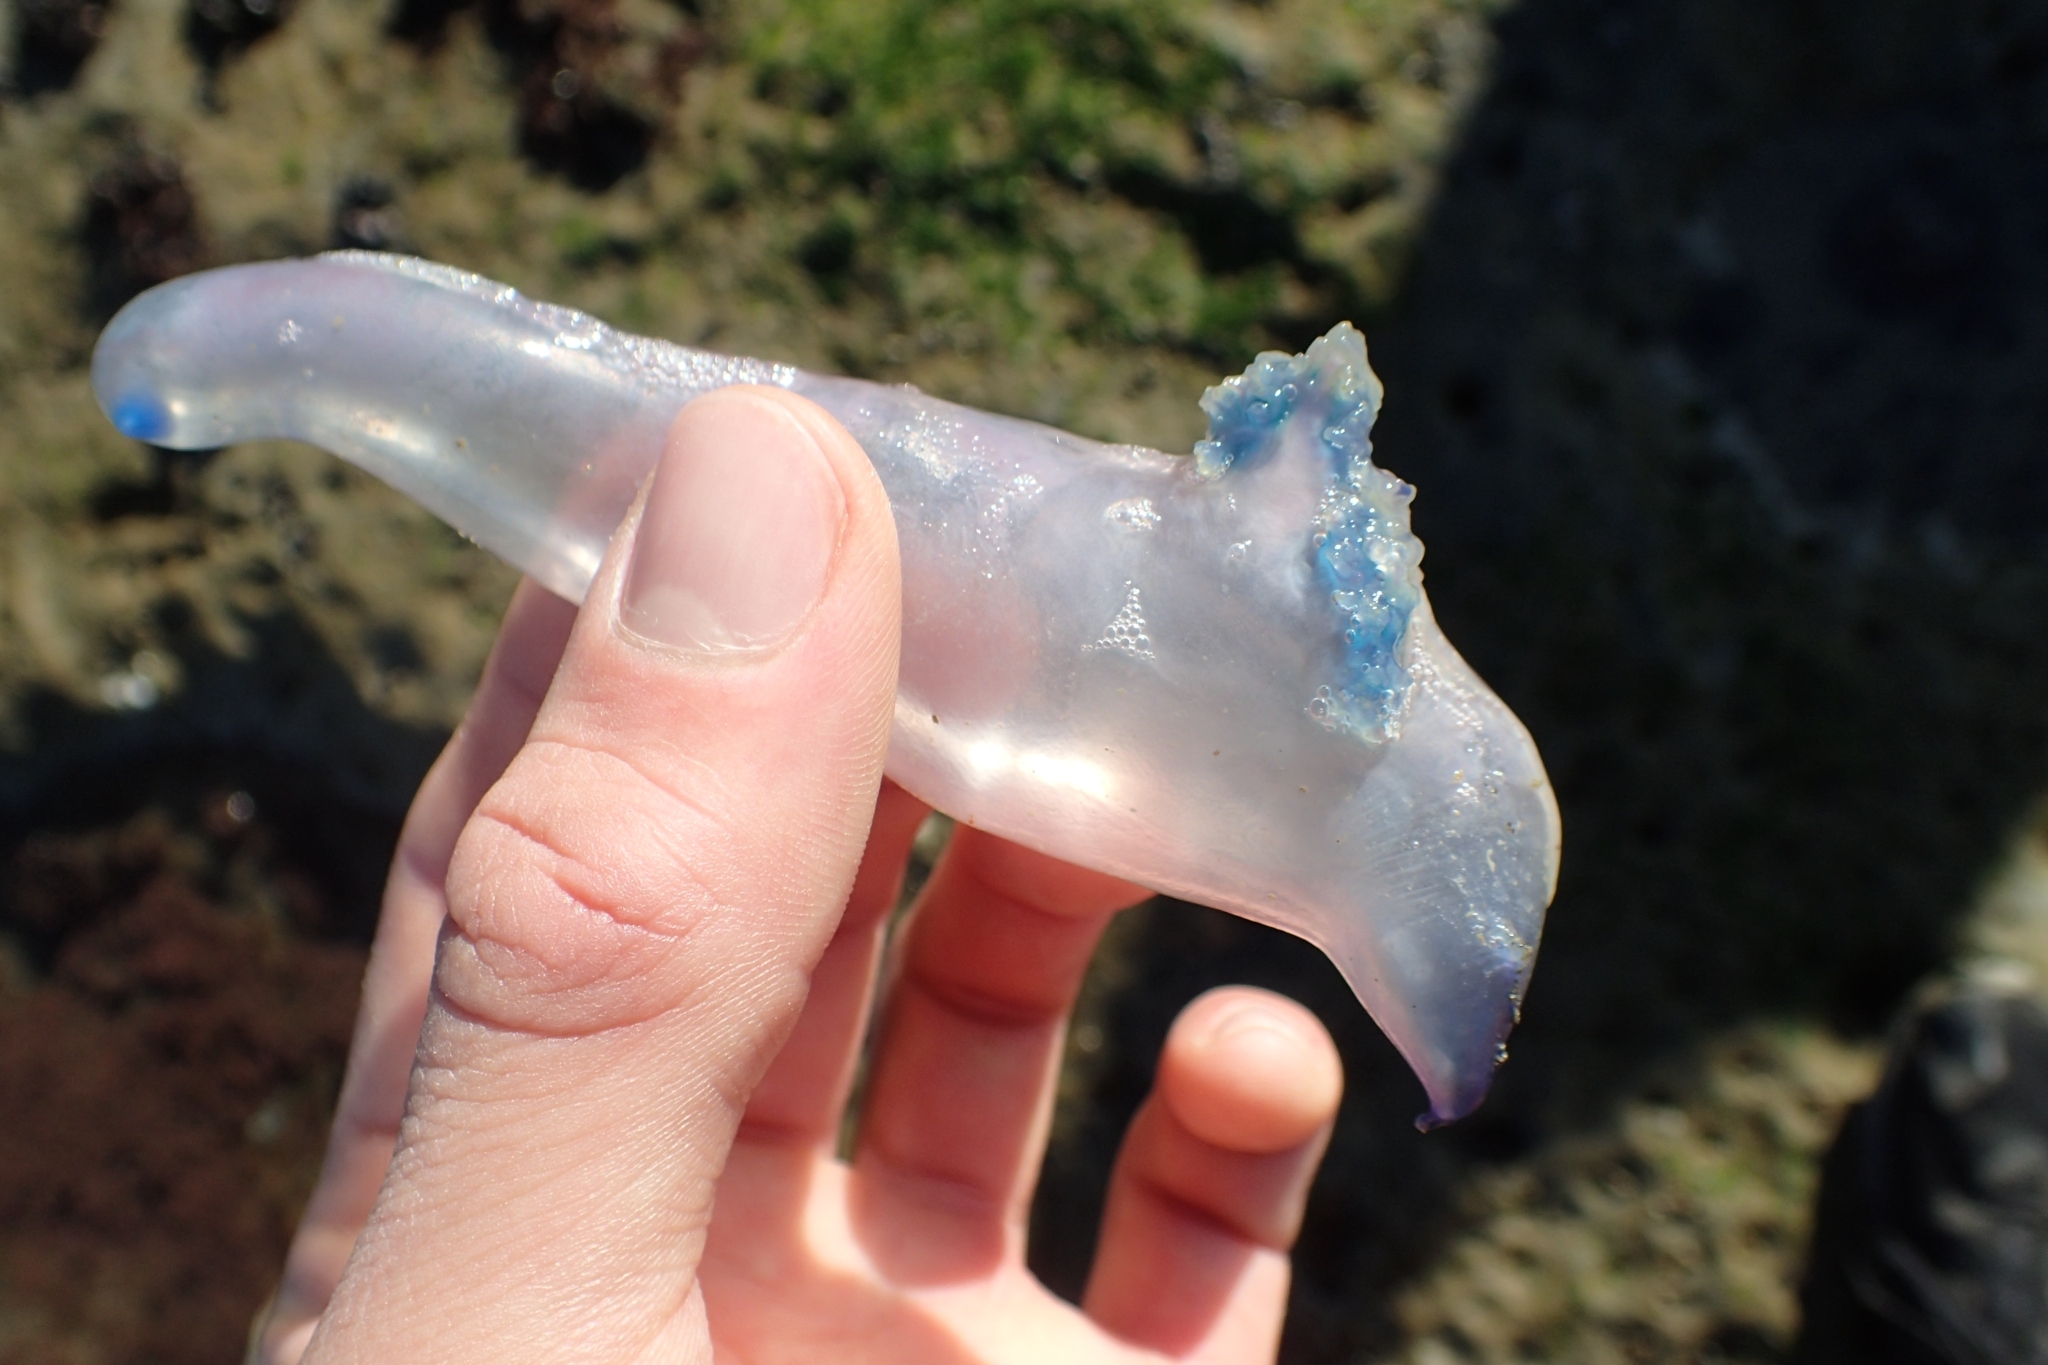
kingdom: Animalia
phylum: Cnidaria
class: Hydrozoa
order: Siphonophorae
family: Physaliidae
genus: Physalia
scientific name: Physalia physalis
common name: Portuguese man-of-war
